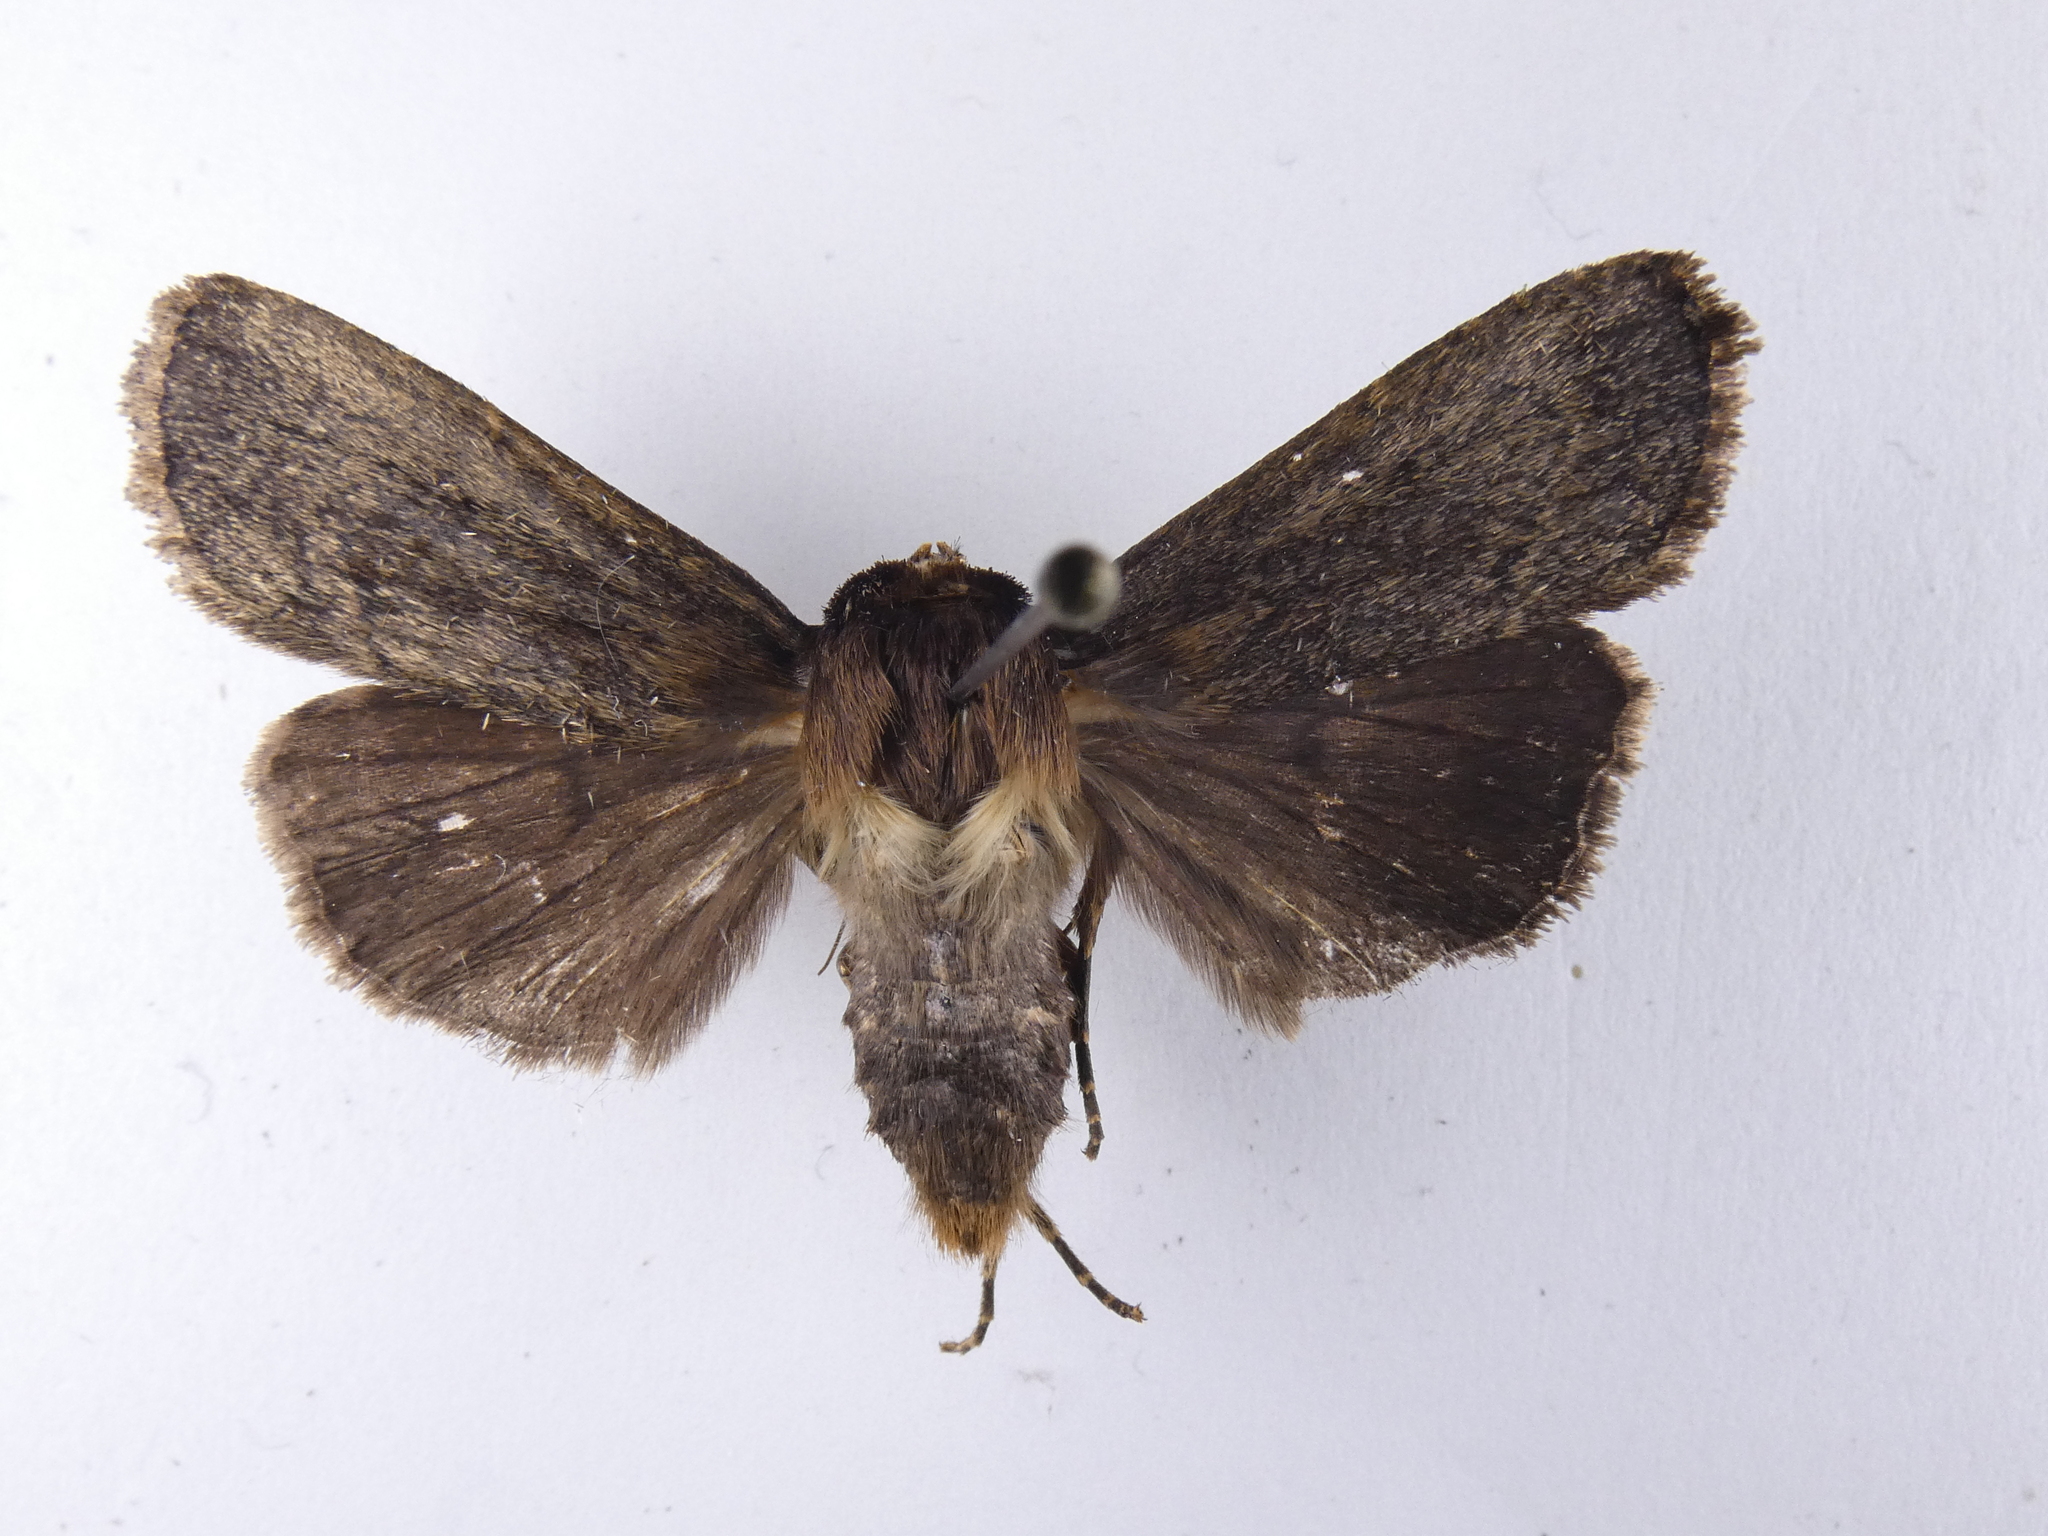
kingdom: Animalia
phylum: Arthropoda
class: Insecta
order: Lepidoptera
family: Noctuidae
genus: Bityla
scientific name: Bityla defigurata
